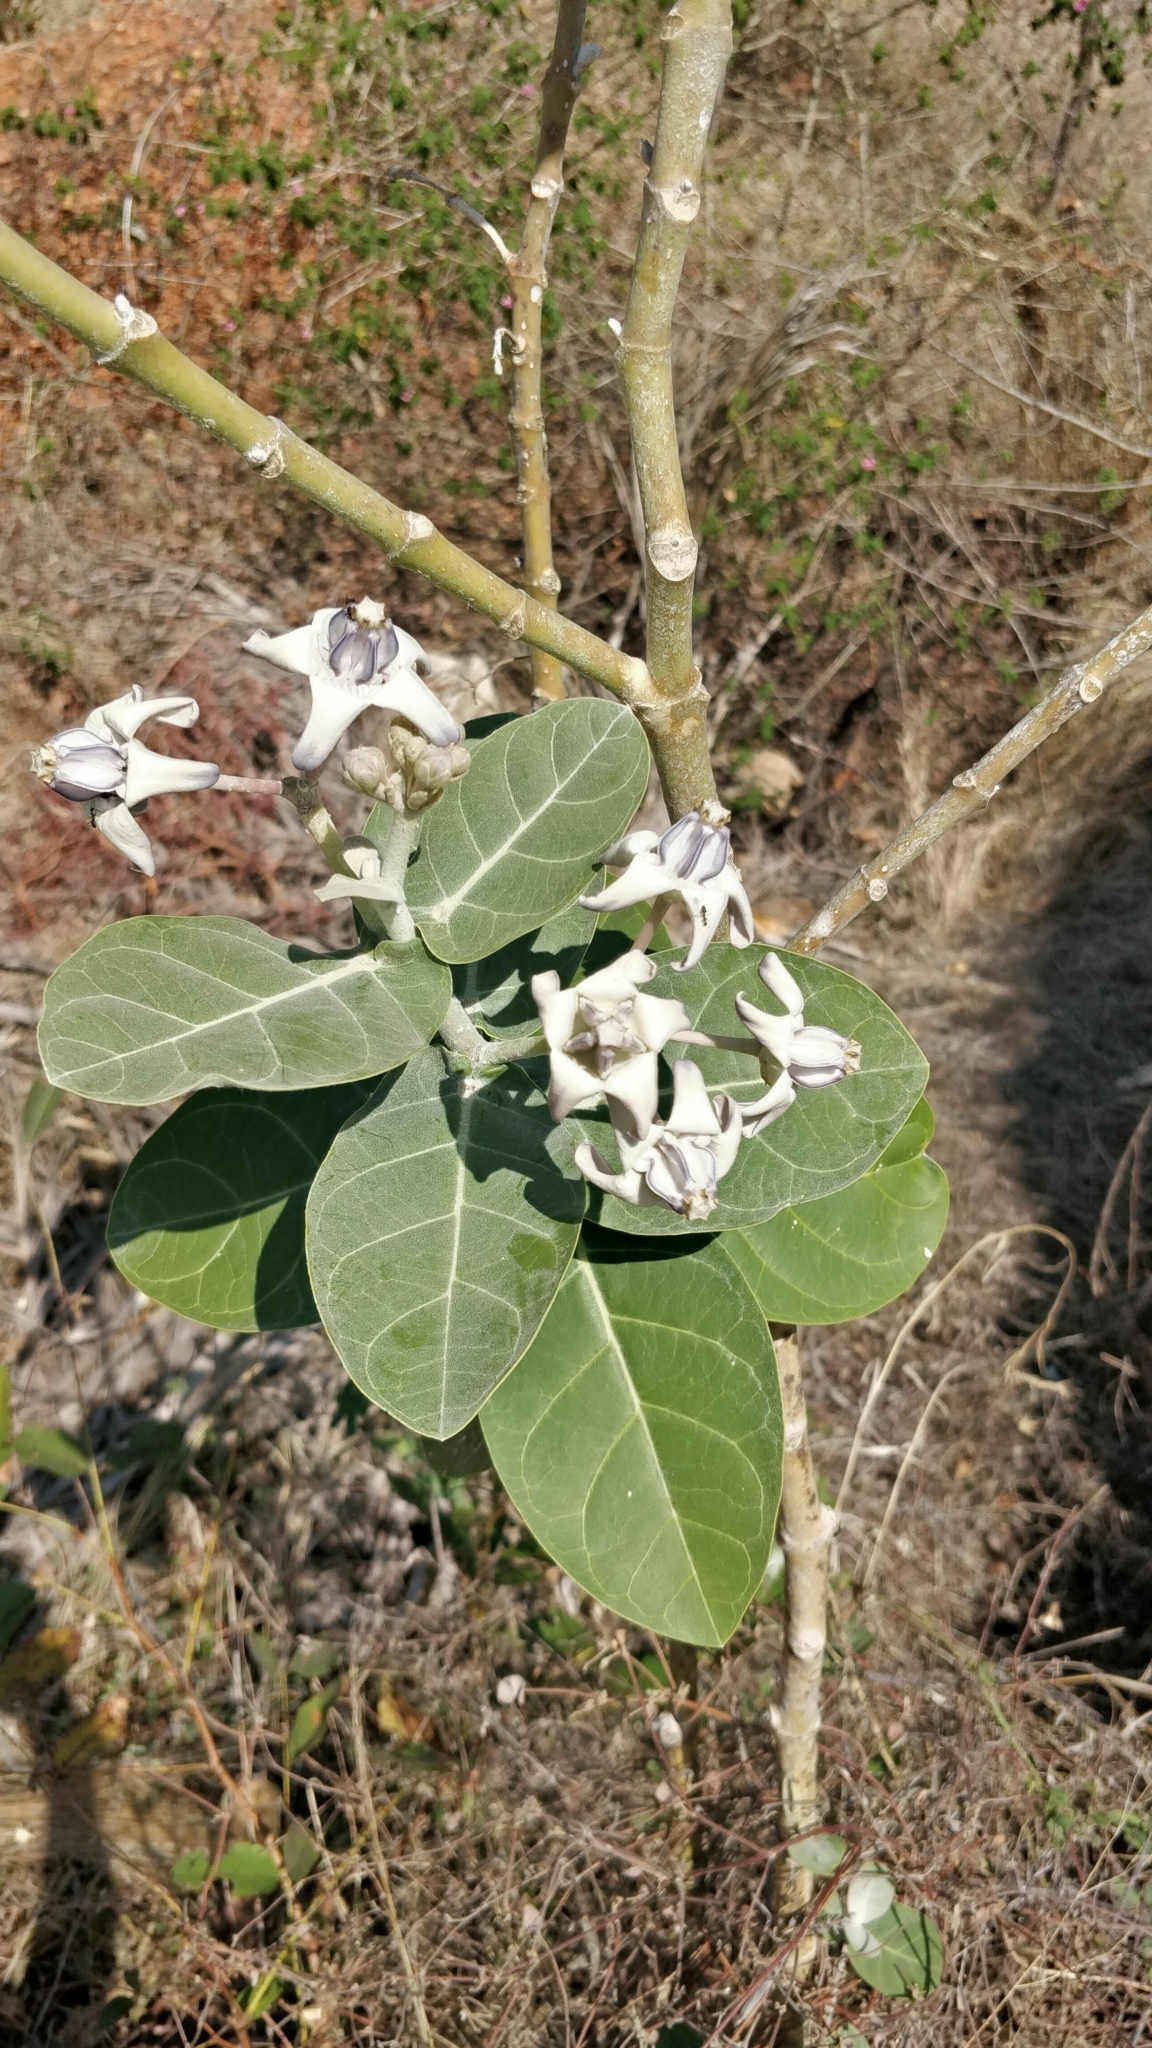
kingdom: Plantae
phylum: Tracheophyta
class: Magnoliopsida
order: Gentianales
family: Apocynaceae
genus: Calotropis
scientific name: Calotropis gigantea
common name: Crown flower
